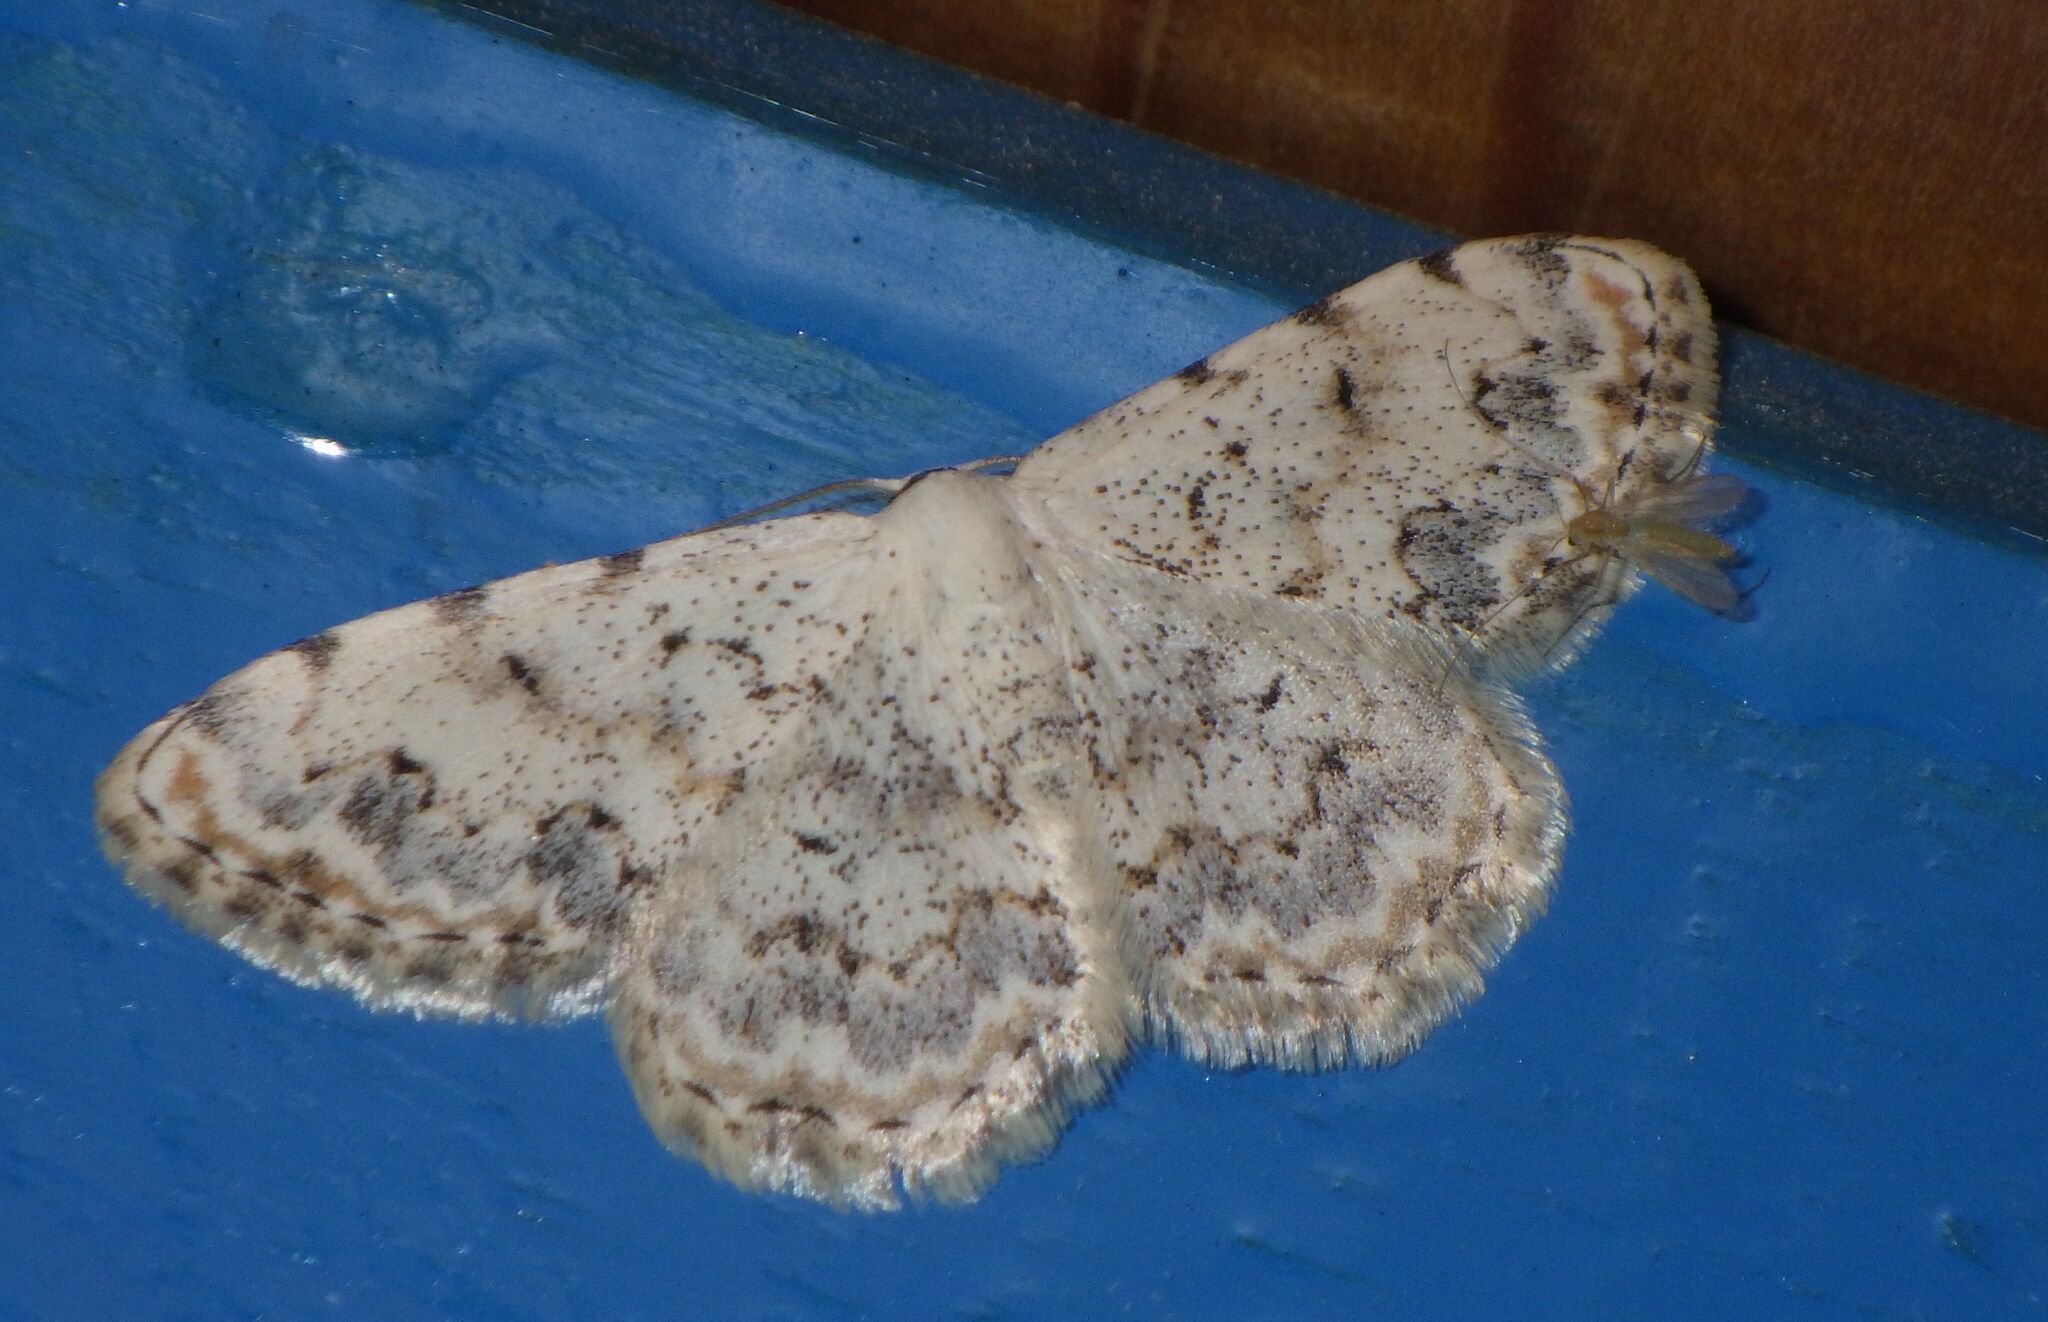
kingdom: Animalia
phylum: Arthropoda
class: Insecta
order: Lepidoptera
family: Geometridae
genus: Scopula
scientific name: Scopula submutata
